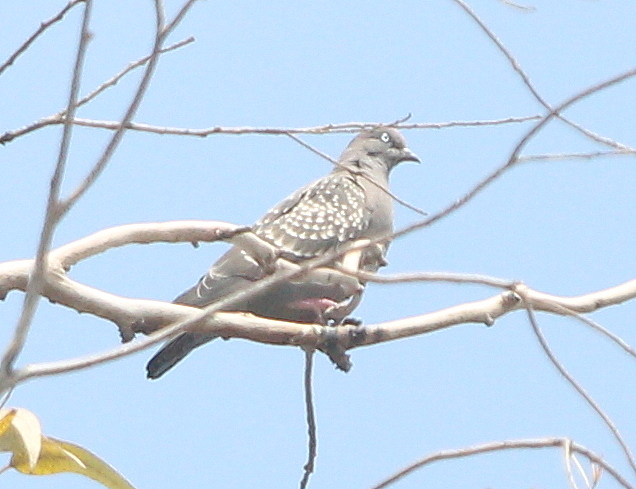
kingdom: Animalia
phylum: Chordata
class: Aves
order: Columbiformes
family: Columbidae
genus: Patagioenas
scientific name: Patagioenas maculosa
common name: Spot-winged pigeon
